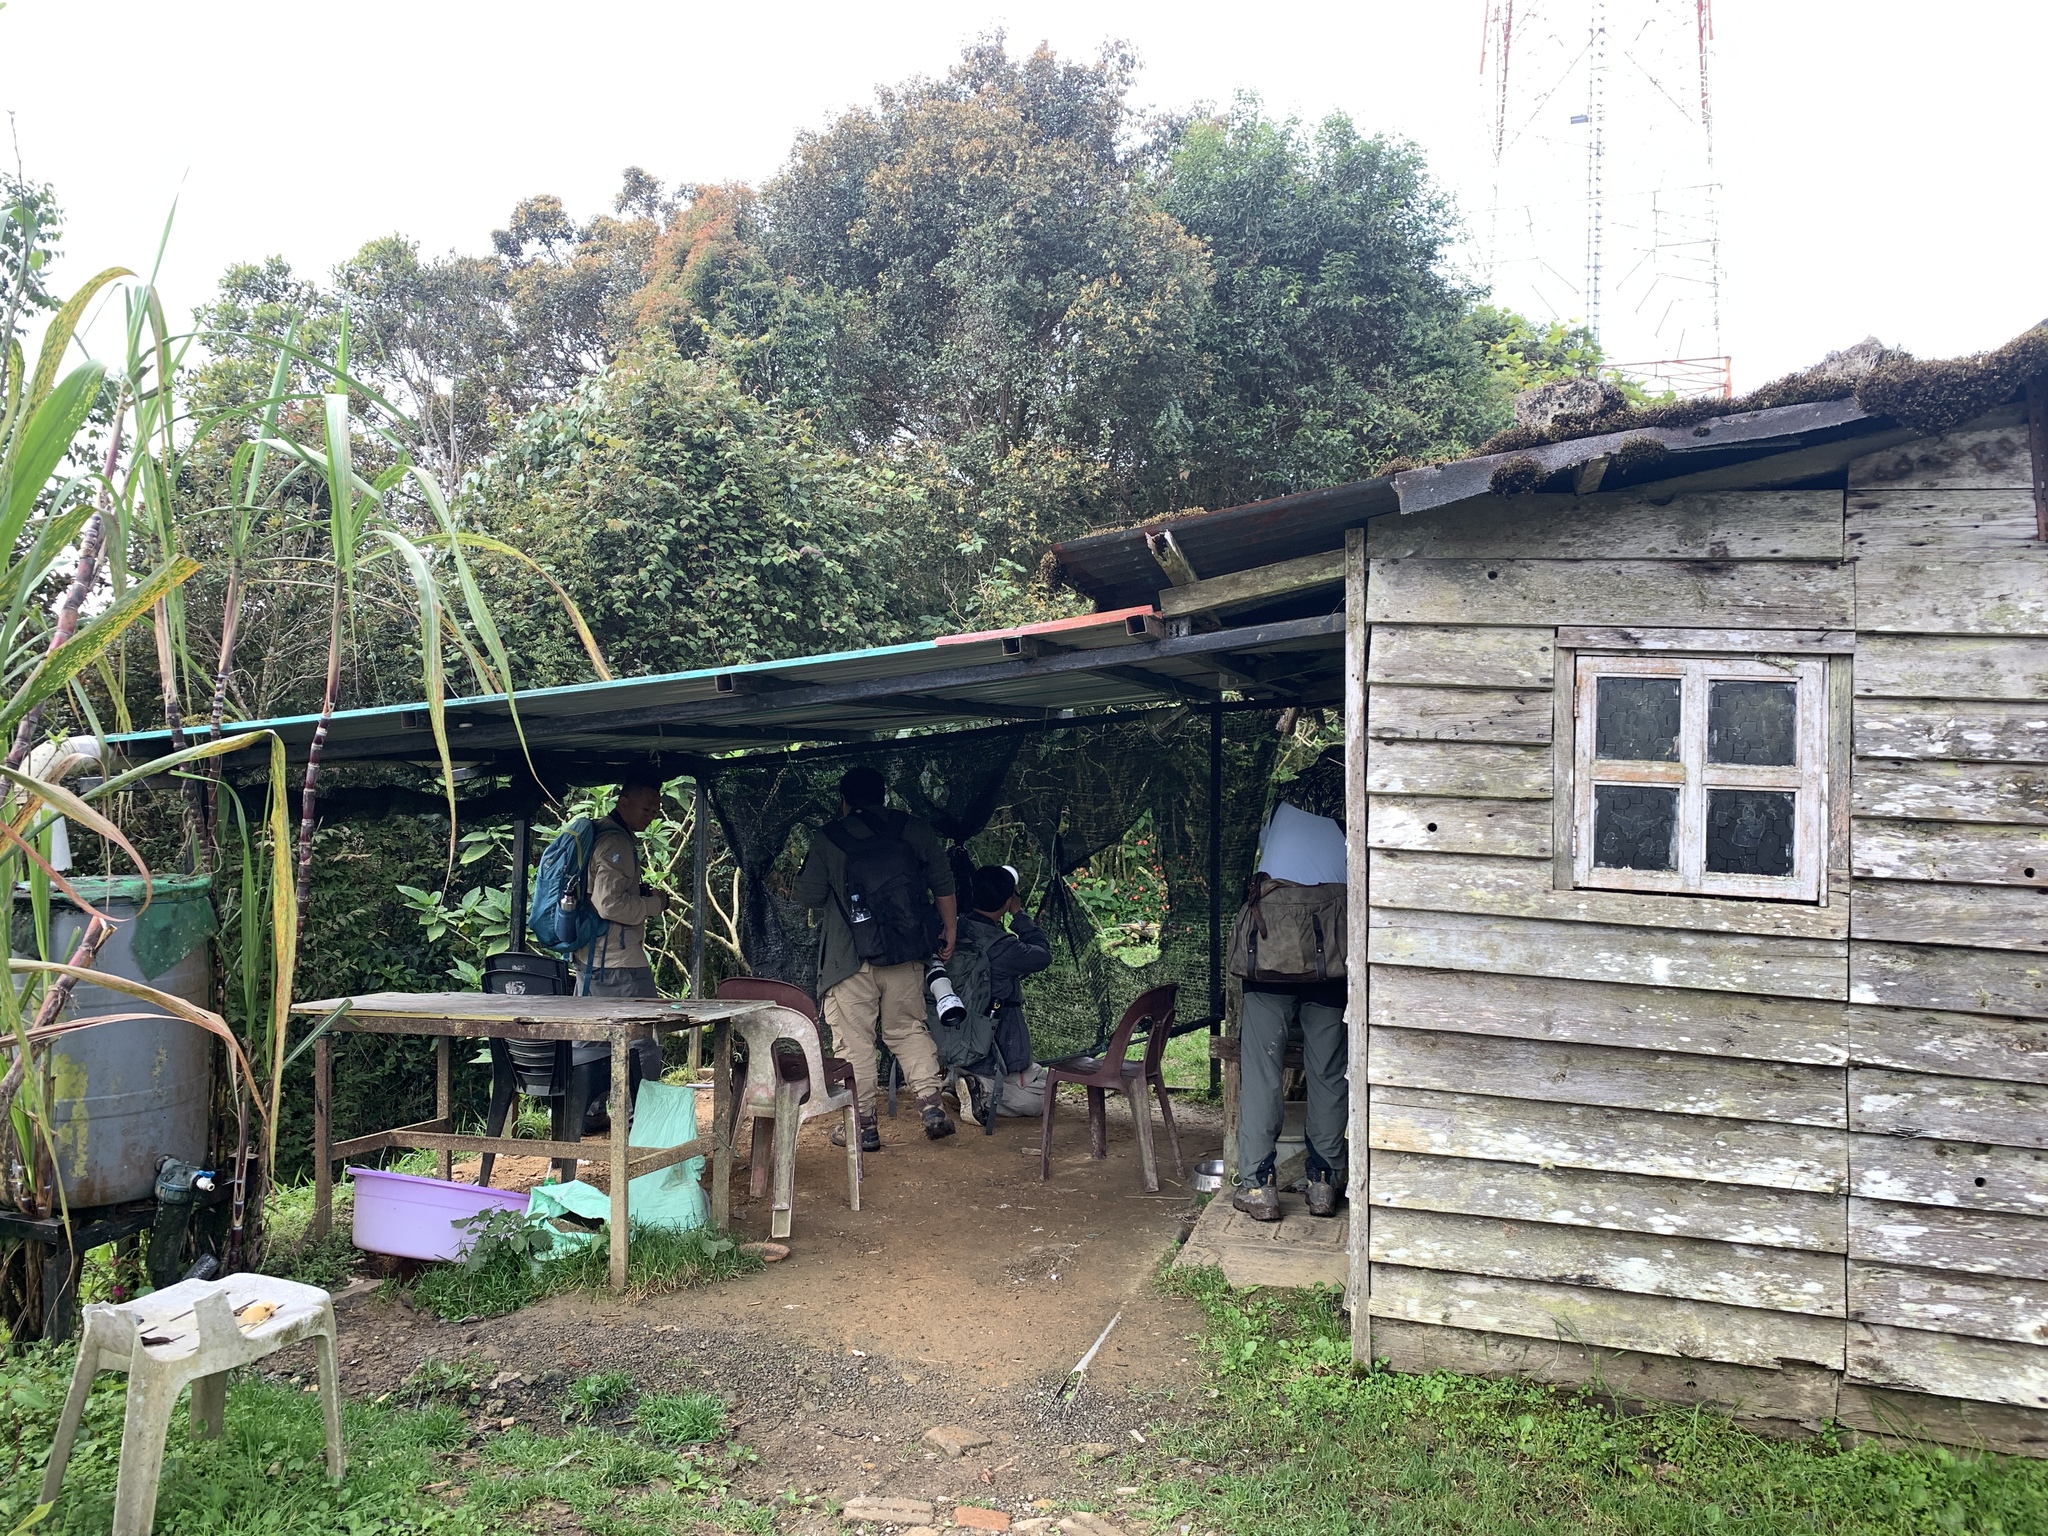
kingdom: Animalia
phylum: Chordata
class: Aves
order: Passeriformes
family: Phylloscopidae
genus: Phylloscopus
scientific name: Phylloscopus trivirgatus
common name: Mountain leaf warbler
